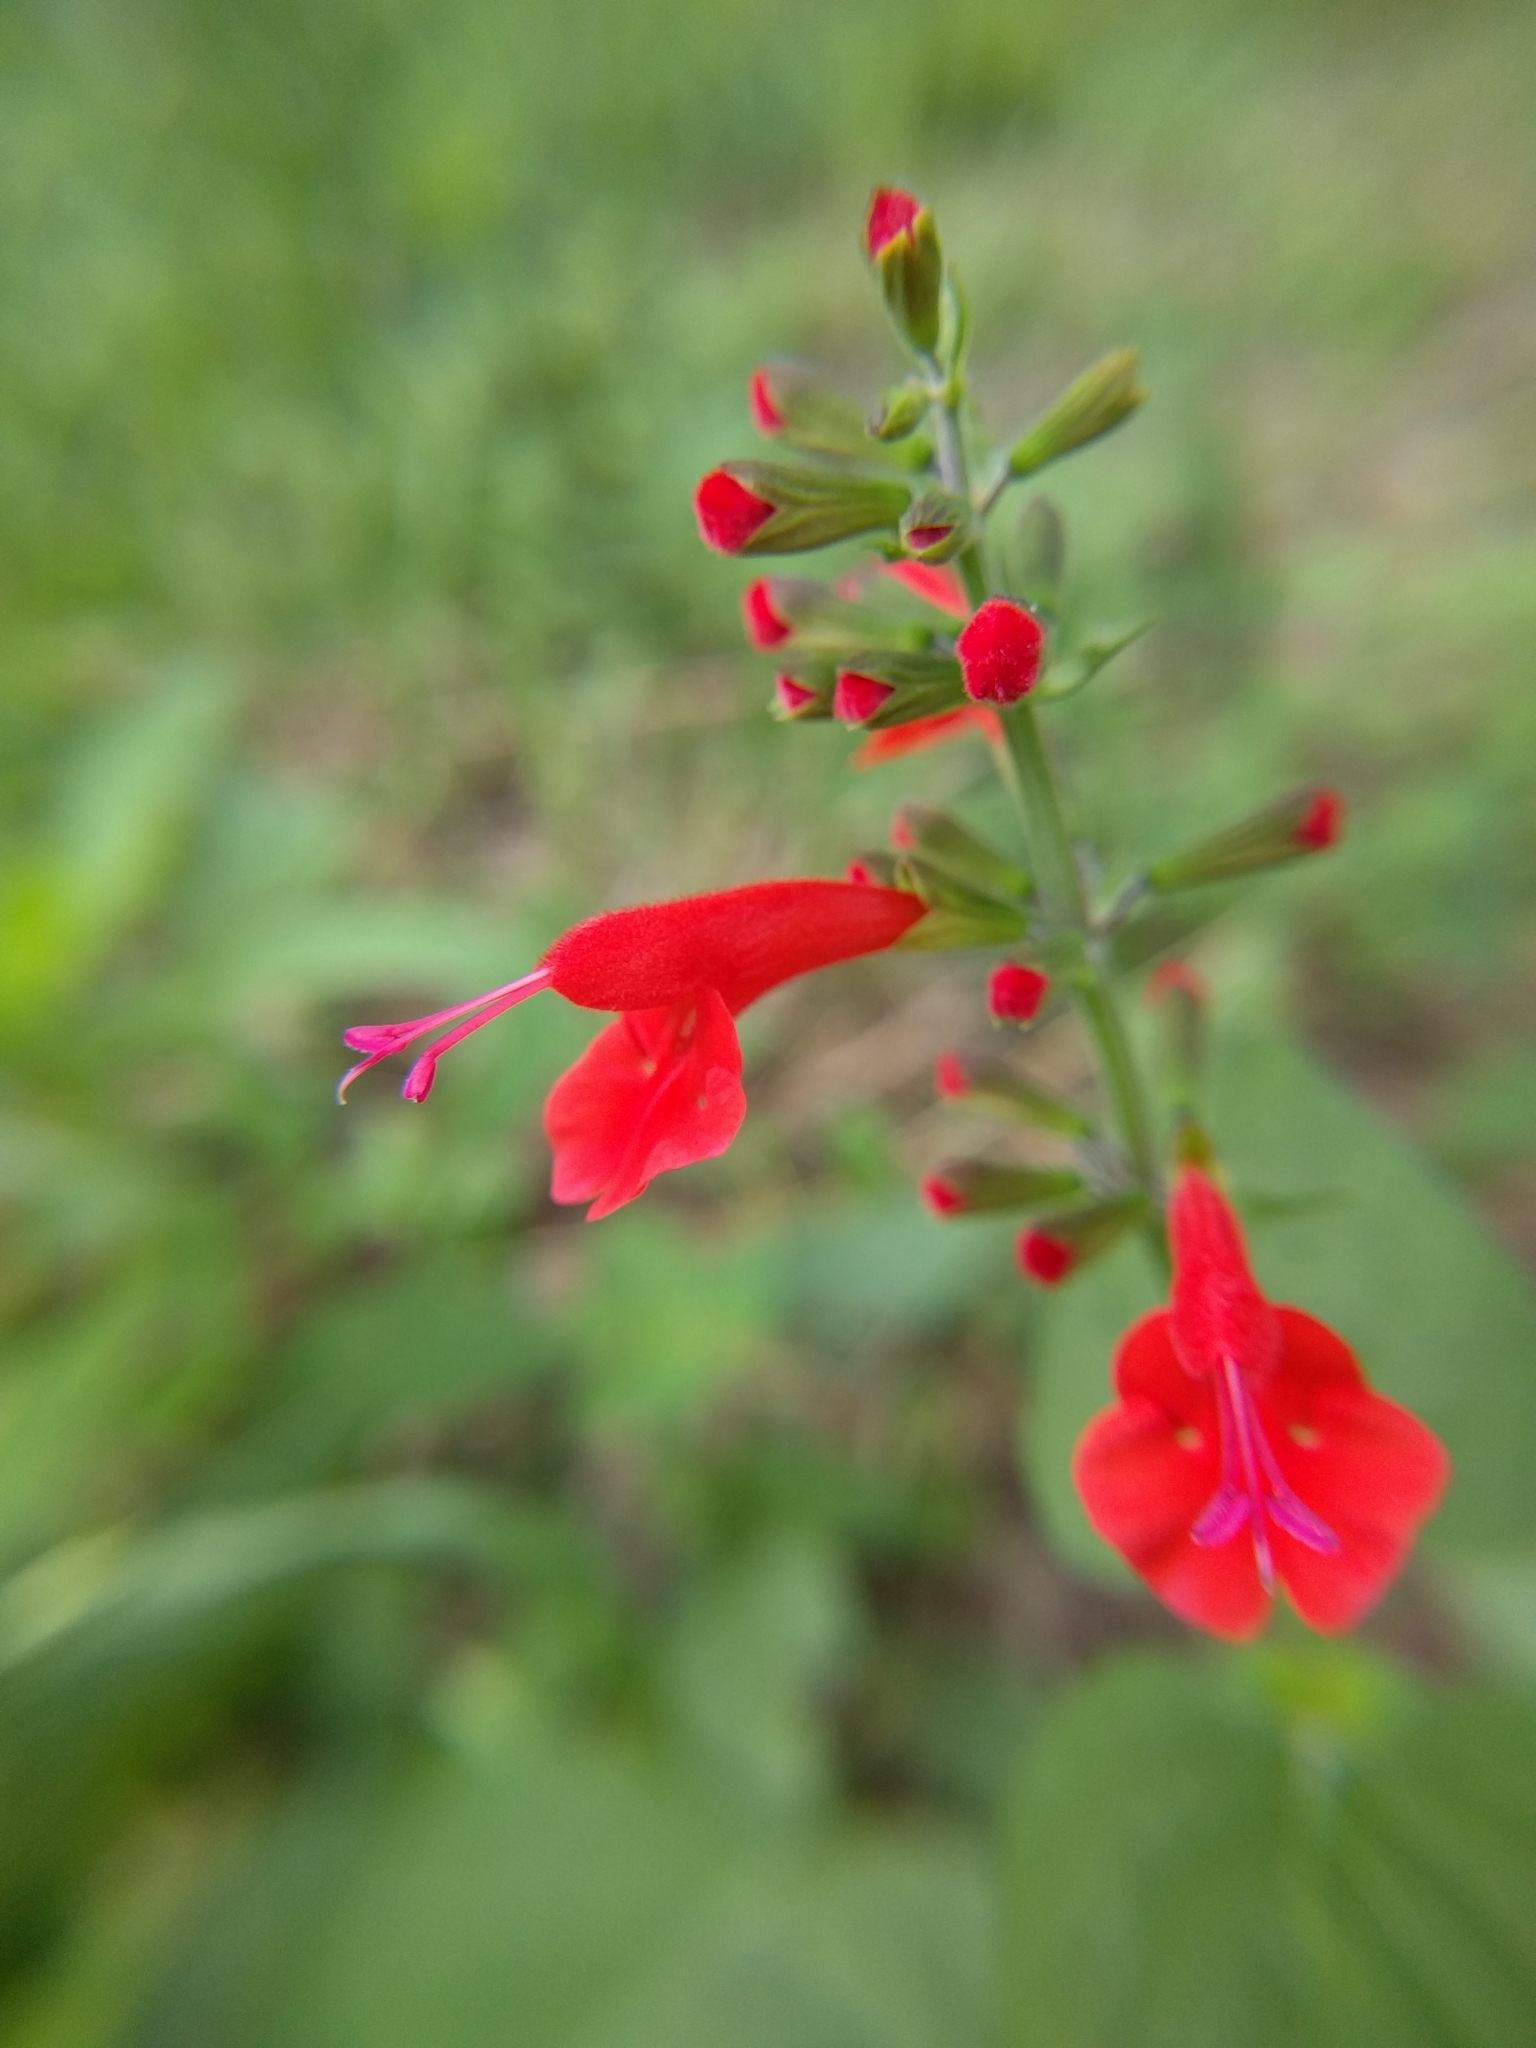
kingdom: Plantae
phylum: Tracheophyta
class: Magnoliopsida
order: Lamiales
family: Lamiaceae
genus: Salvia
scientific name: Salvia coccinea
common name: Blood sage
